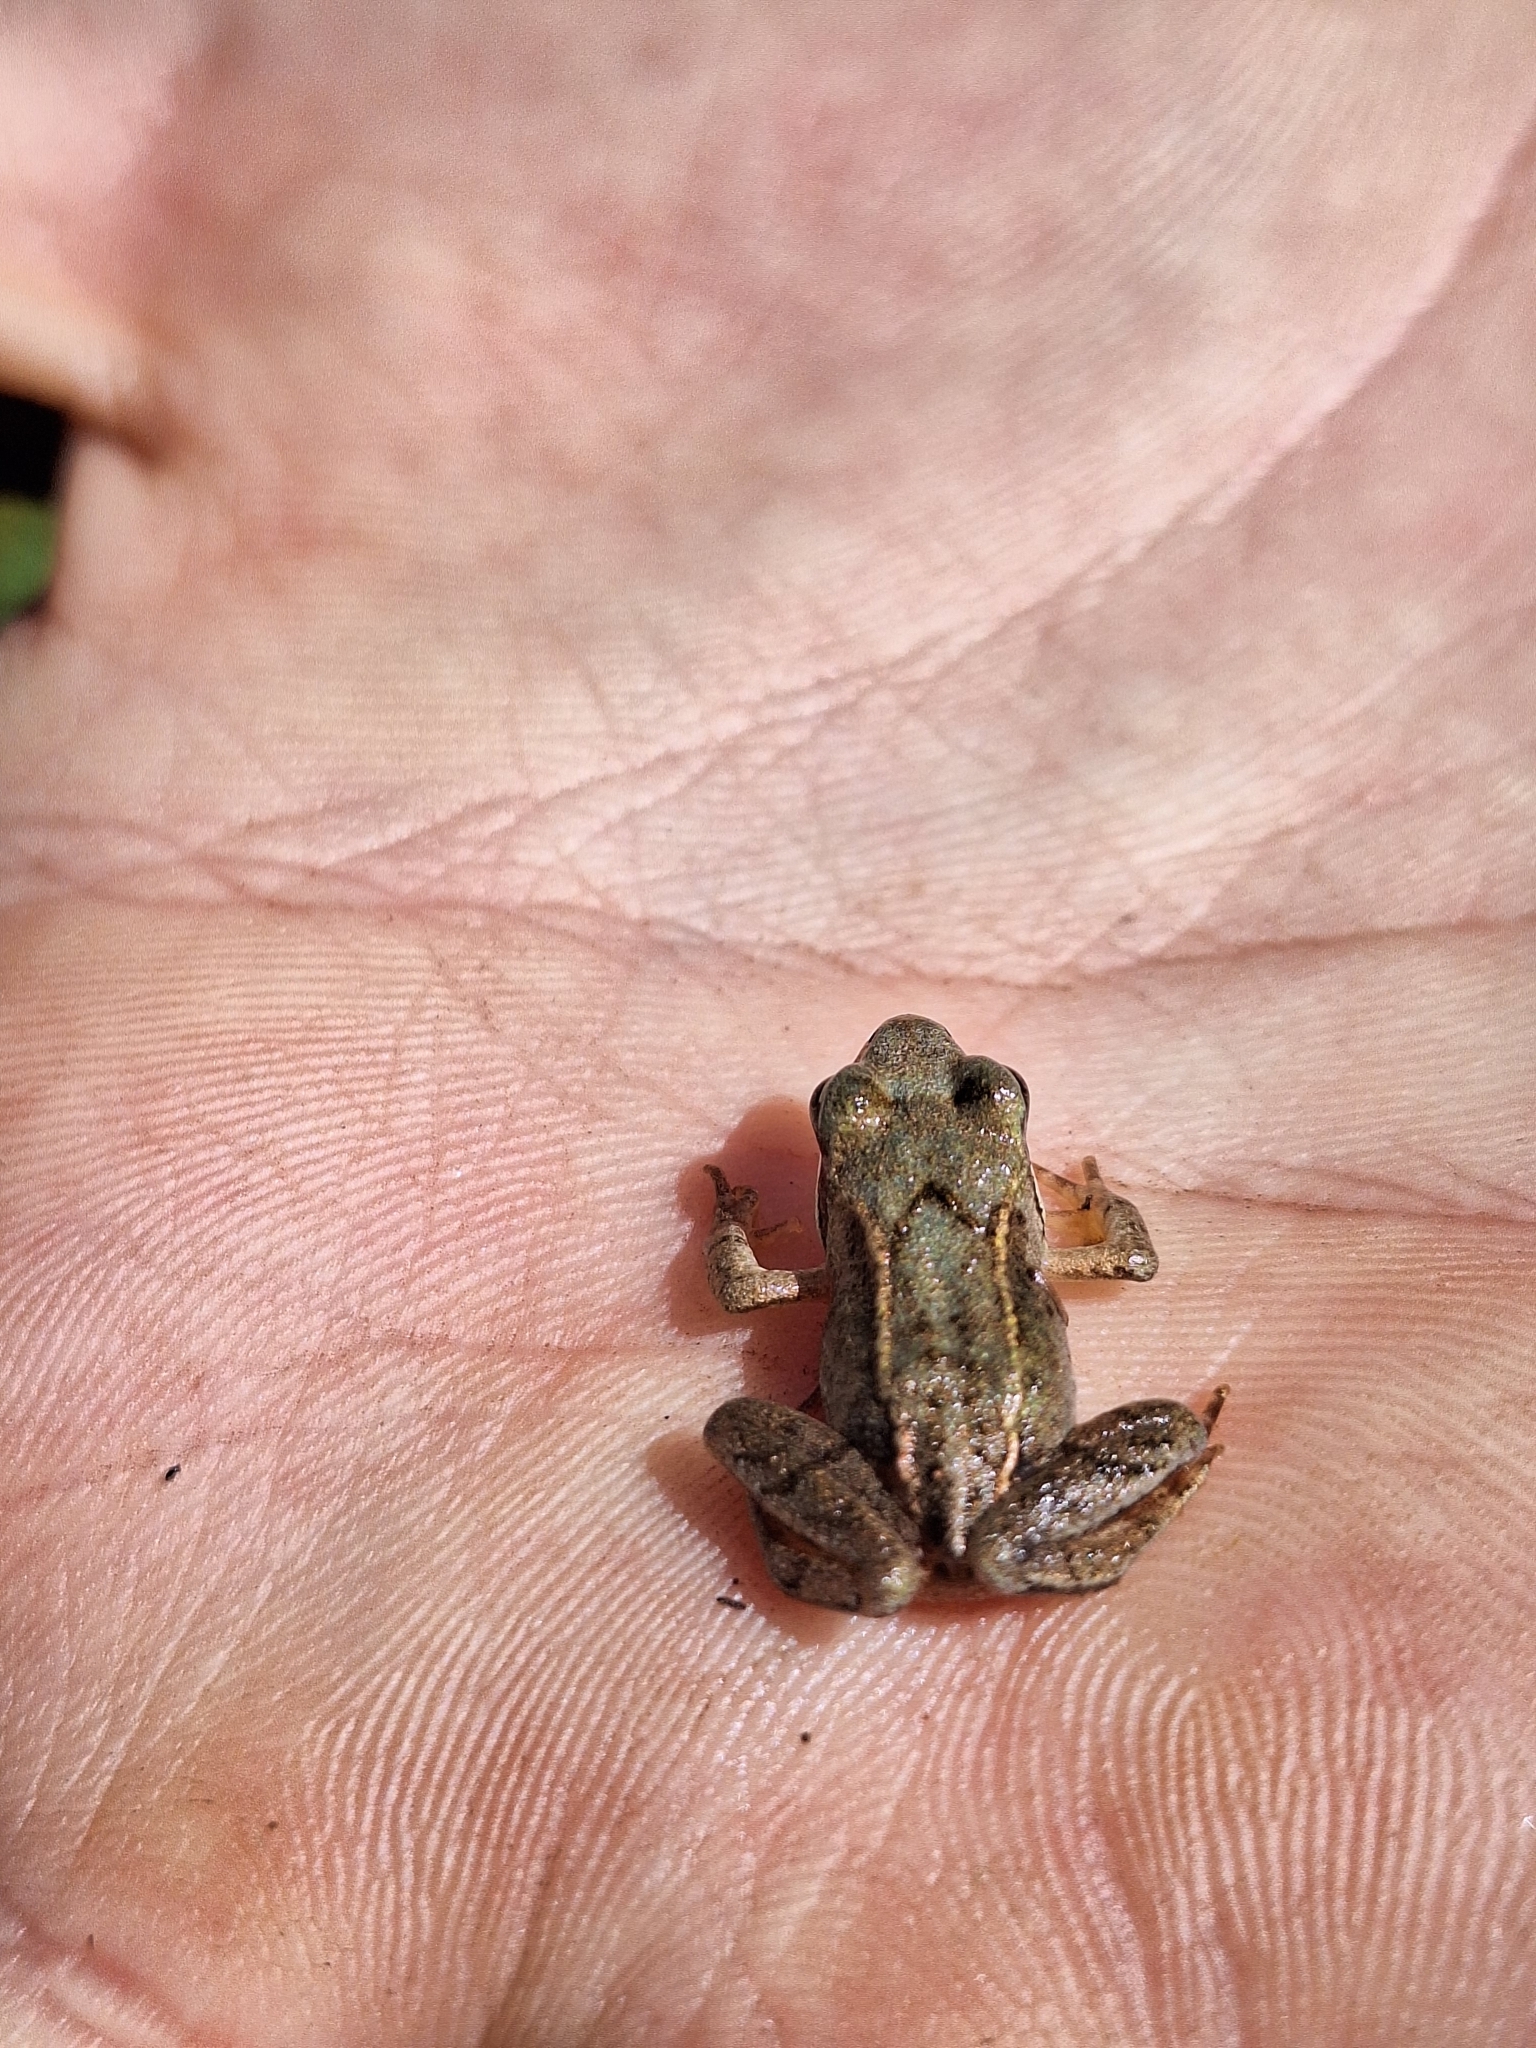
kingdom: Animalia
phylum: Chordata
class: Amphibia
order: Anura
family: Ranidae
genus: Rana
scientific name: Rana temporaria
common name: Common frog
